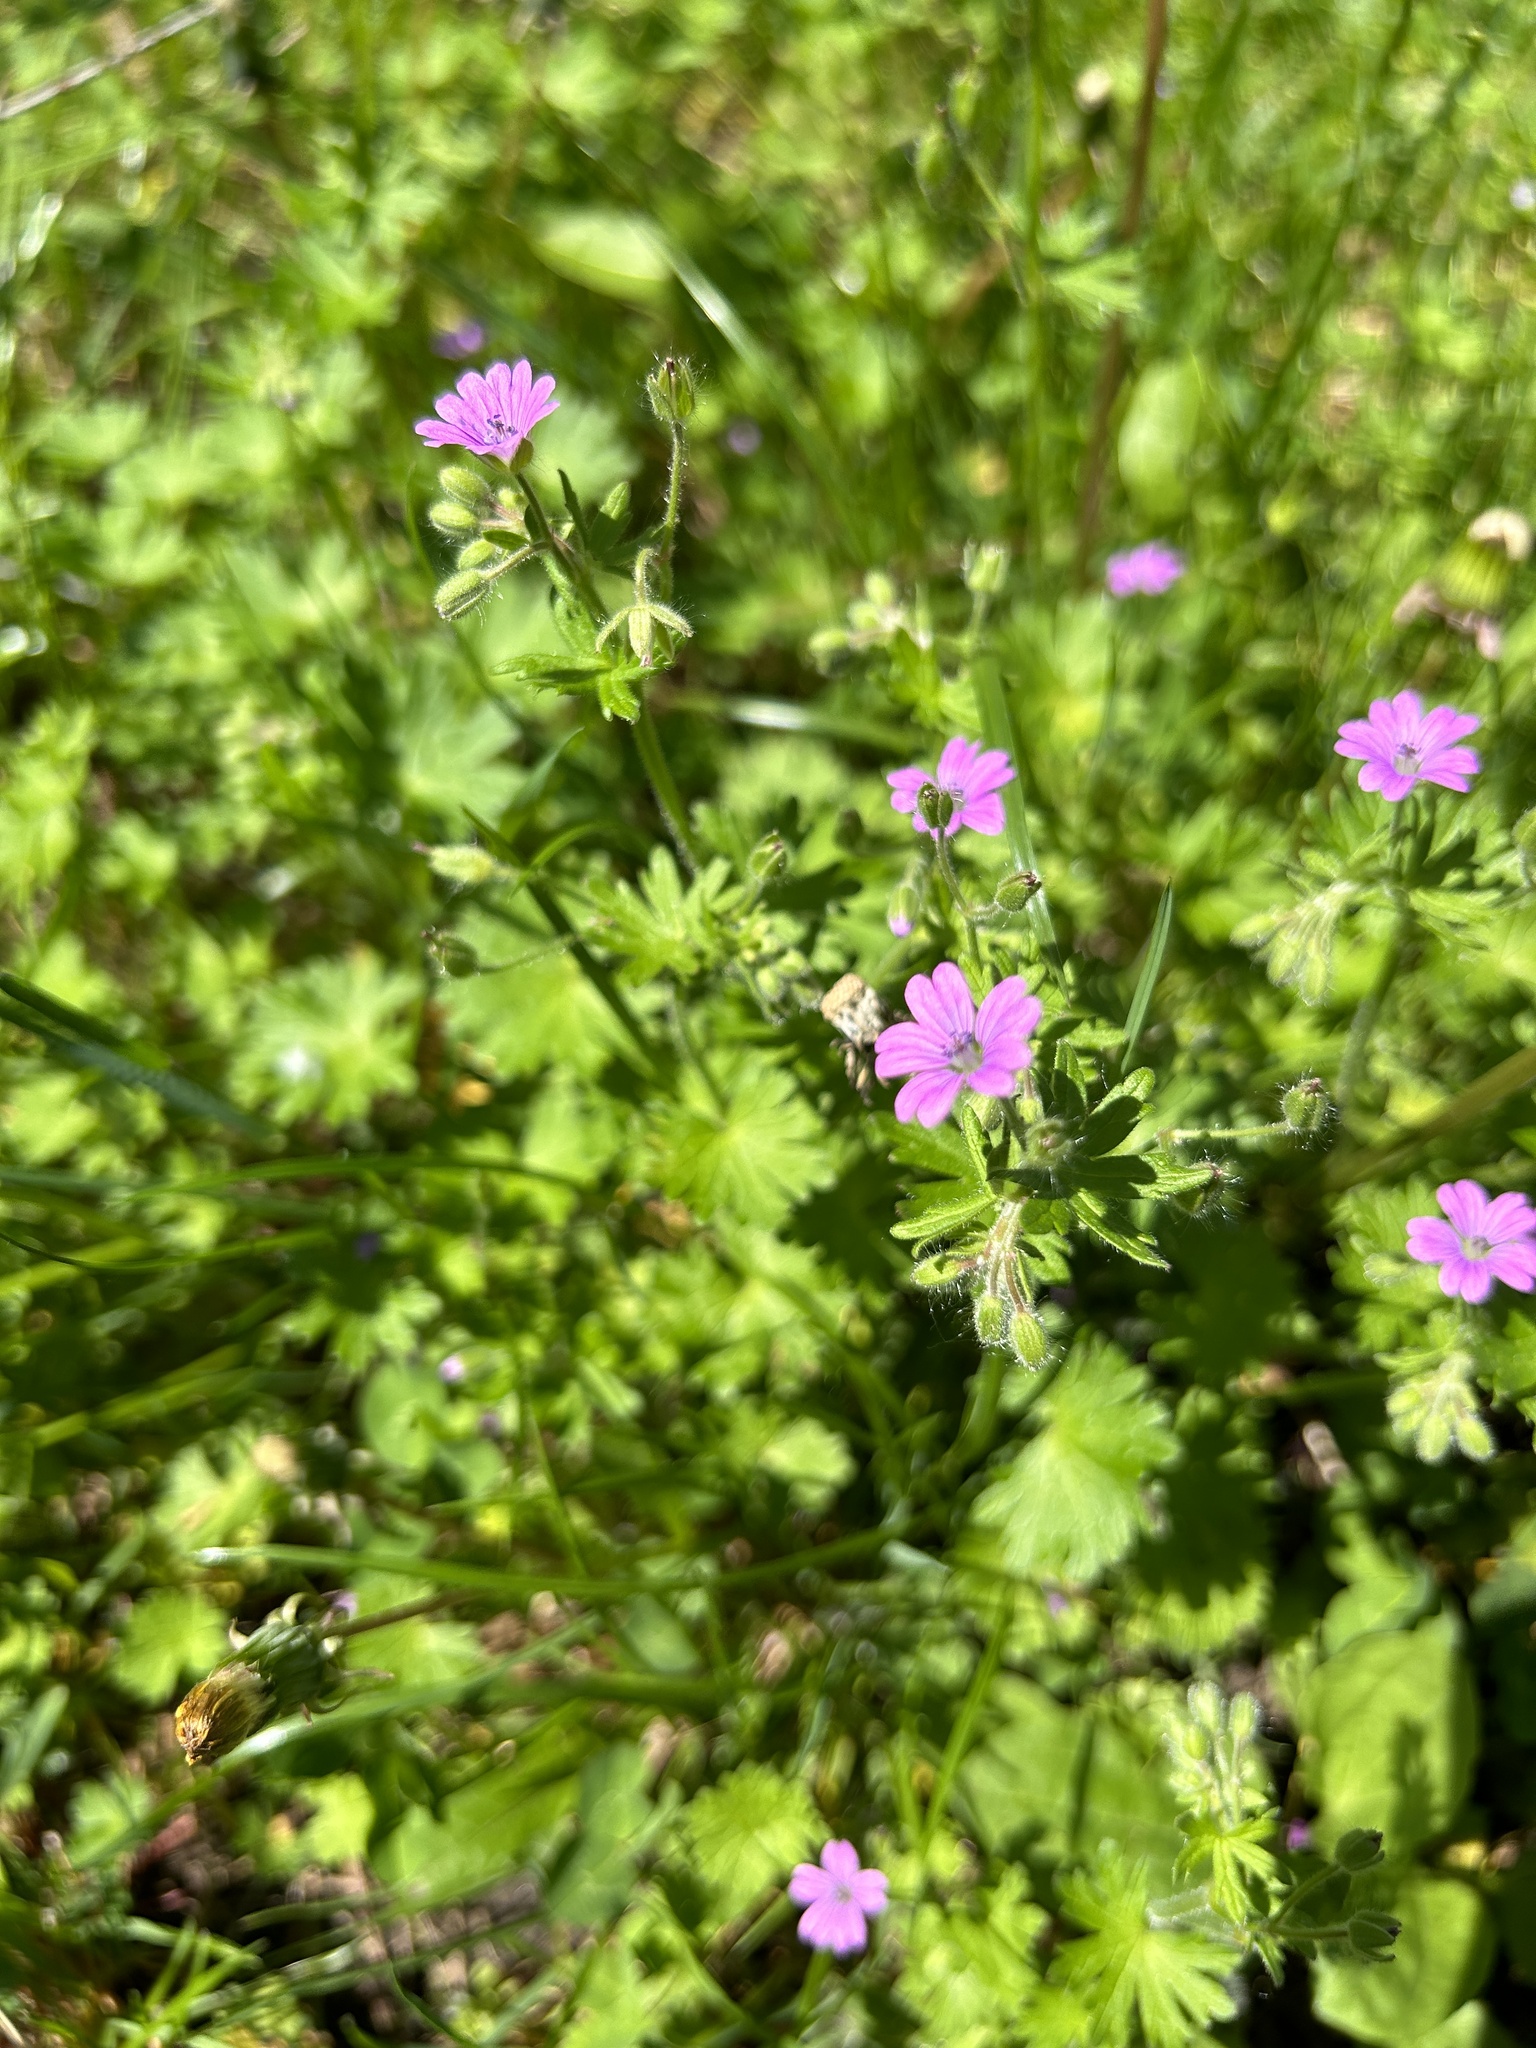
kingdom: Plantae
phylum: Tracheophyta
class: Magnoliopsida
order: Geraniales
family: Geraniaceae
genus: Geranium
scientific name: Geranium molle
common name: Dove's-foot crane's-bill
